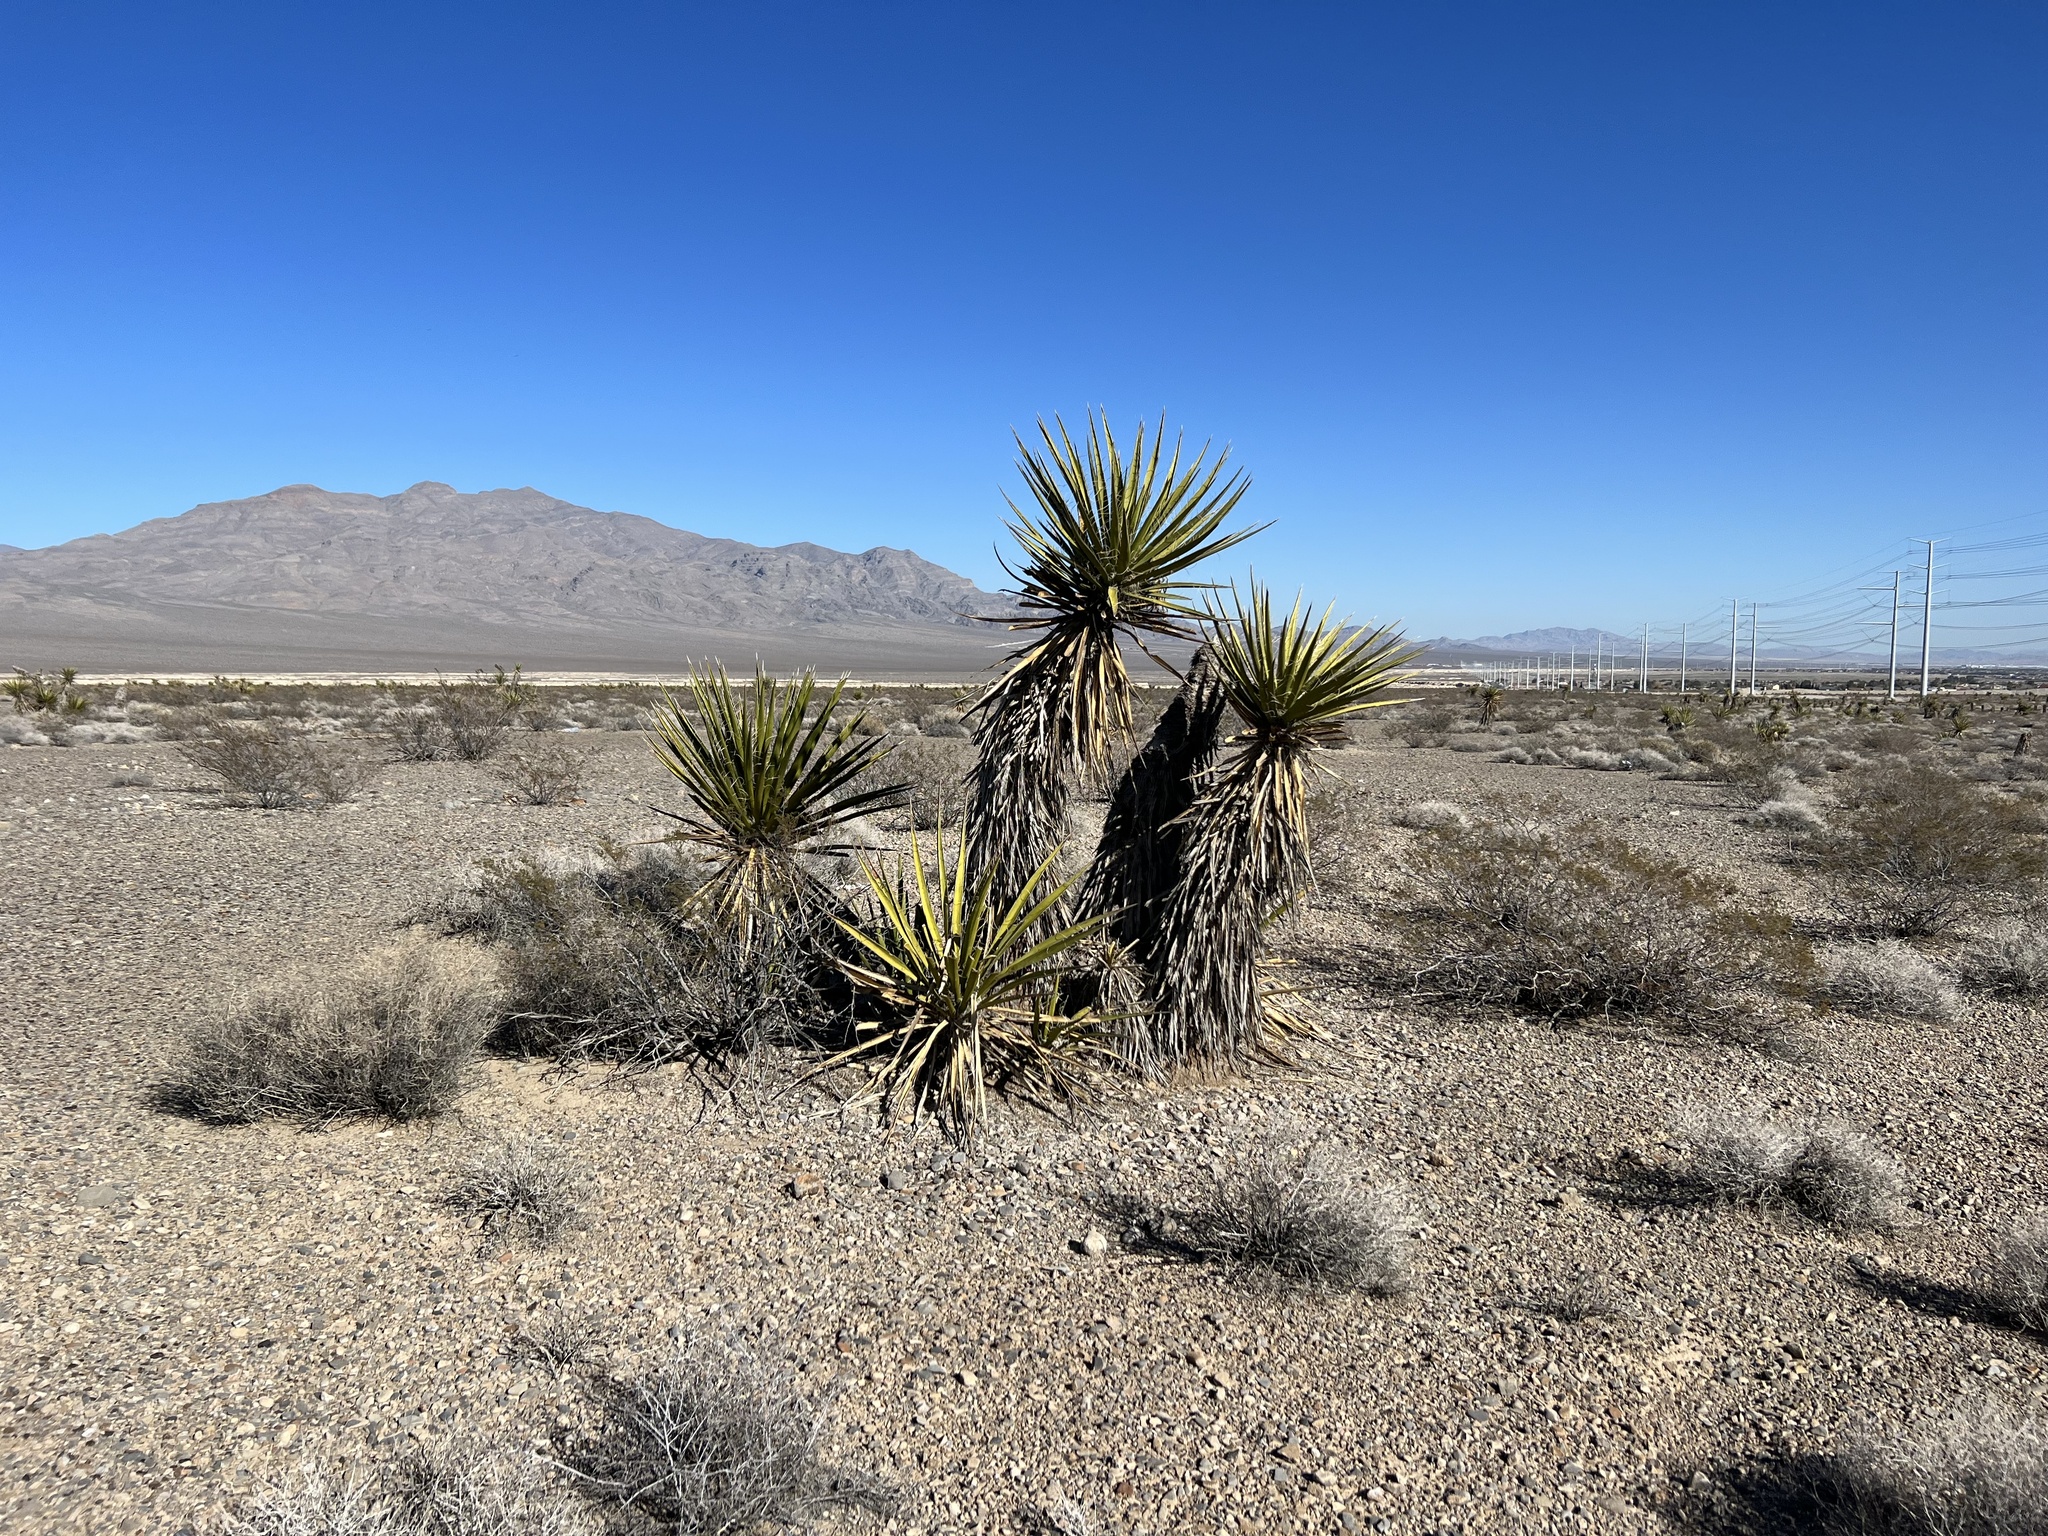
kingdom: Plantae
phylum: Tracheophyta
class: Liliopsida
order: Asparagales
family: Asparagaceae
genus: Yucca
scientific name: Yucca schidigera
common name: Mojave yucca
